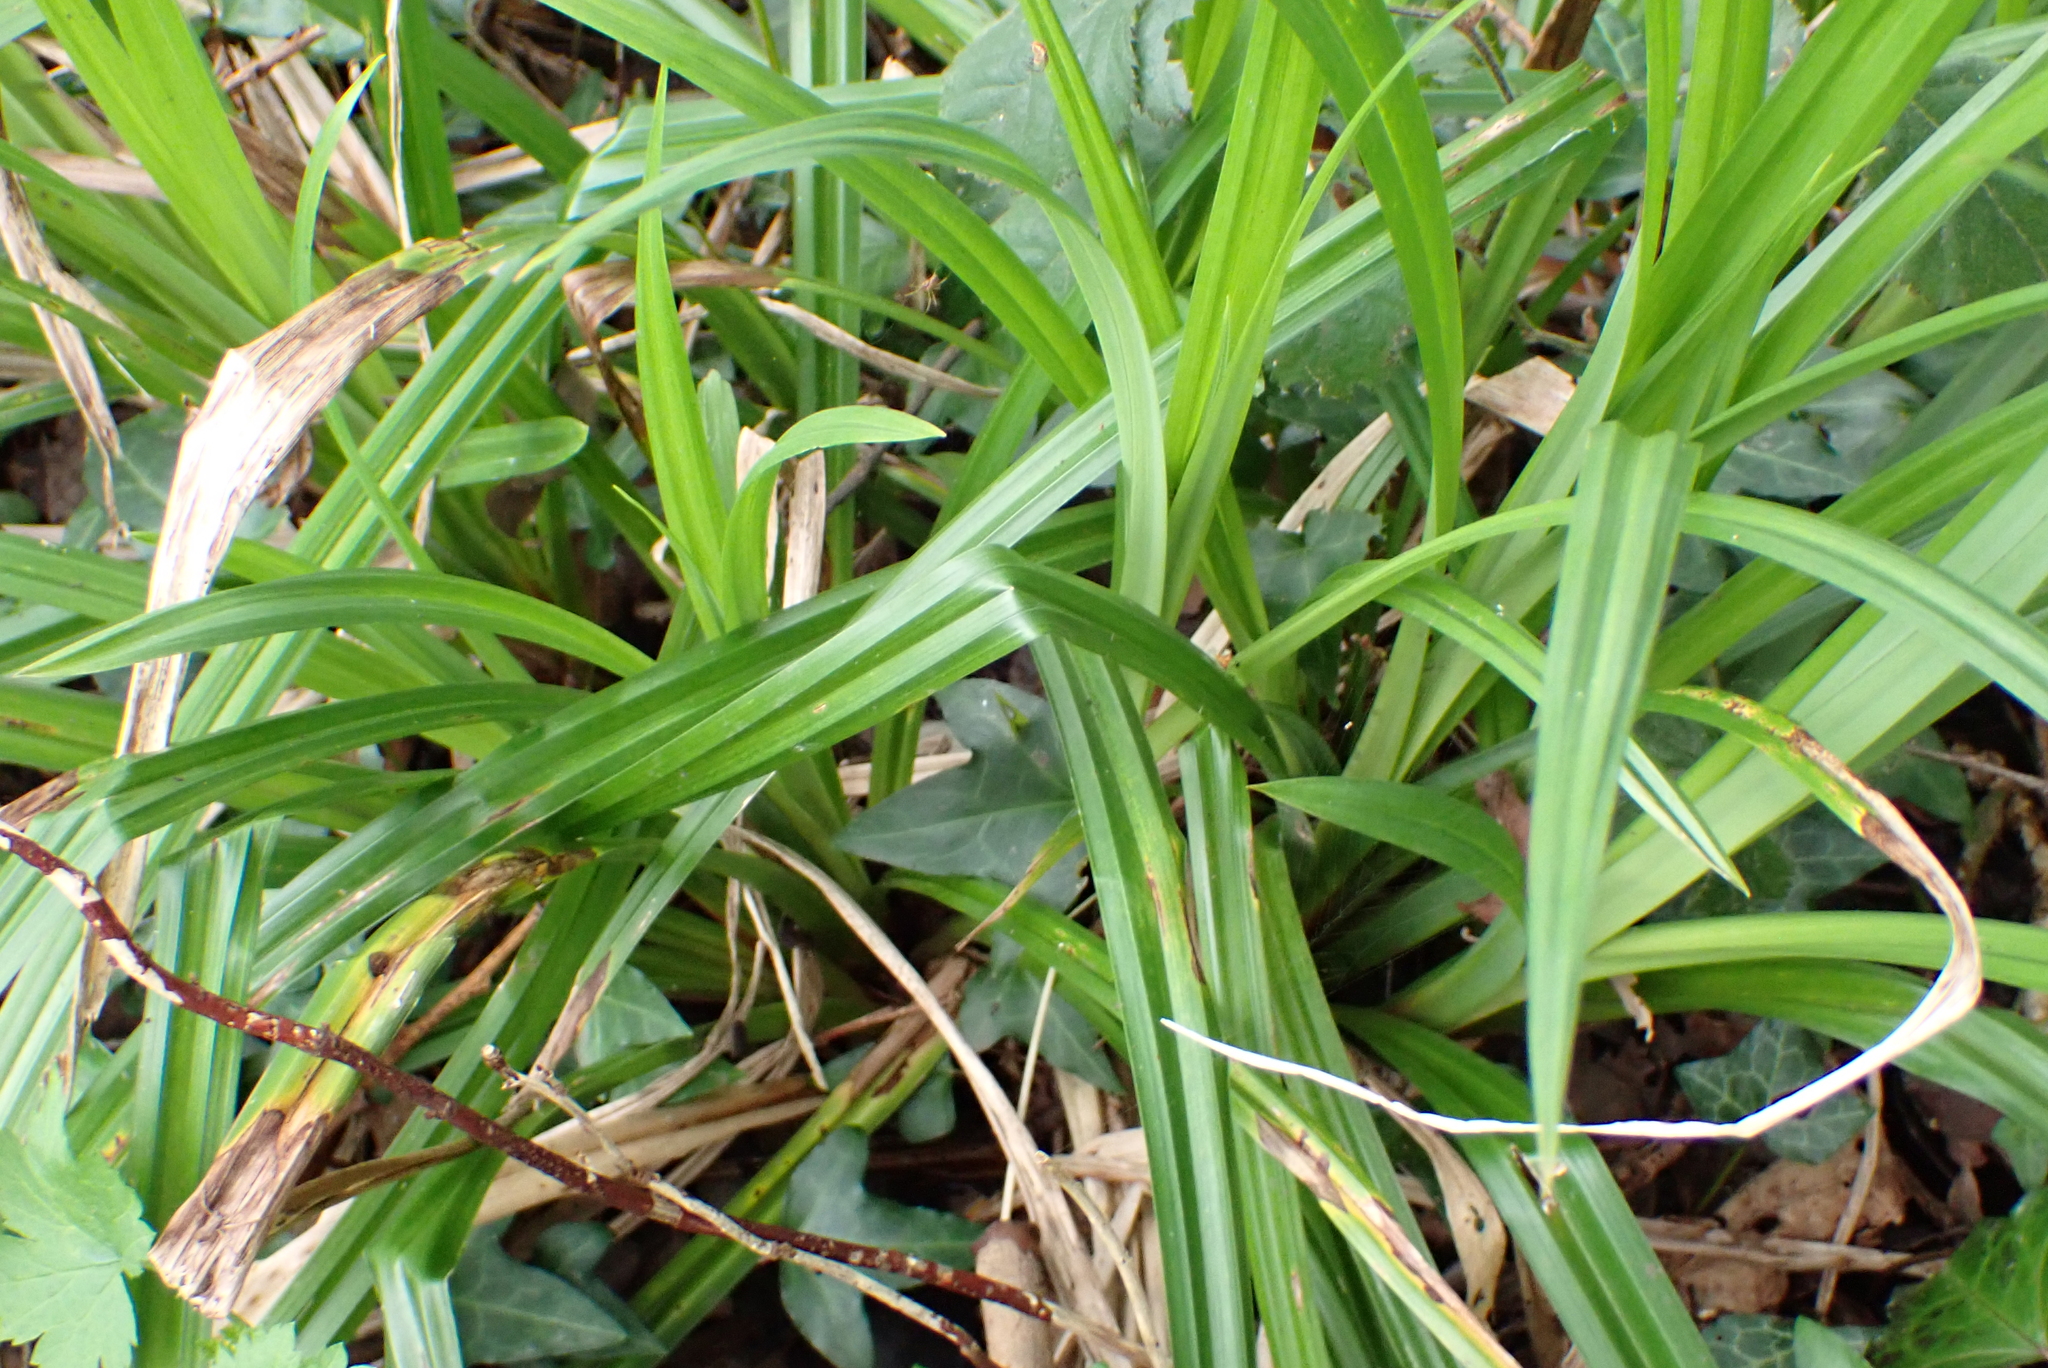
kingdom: Plantae
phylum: Tracheophyta
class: Liliopsida
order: Poales
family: Cyperaceae
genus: Carex
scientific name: Carex pendula
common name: Pendulous sedge
